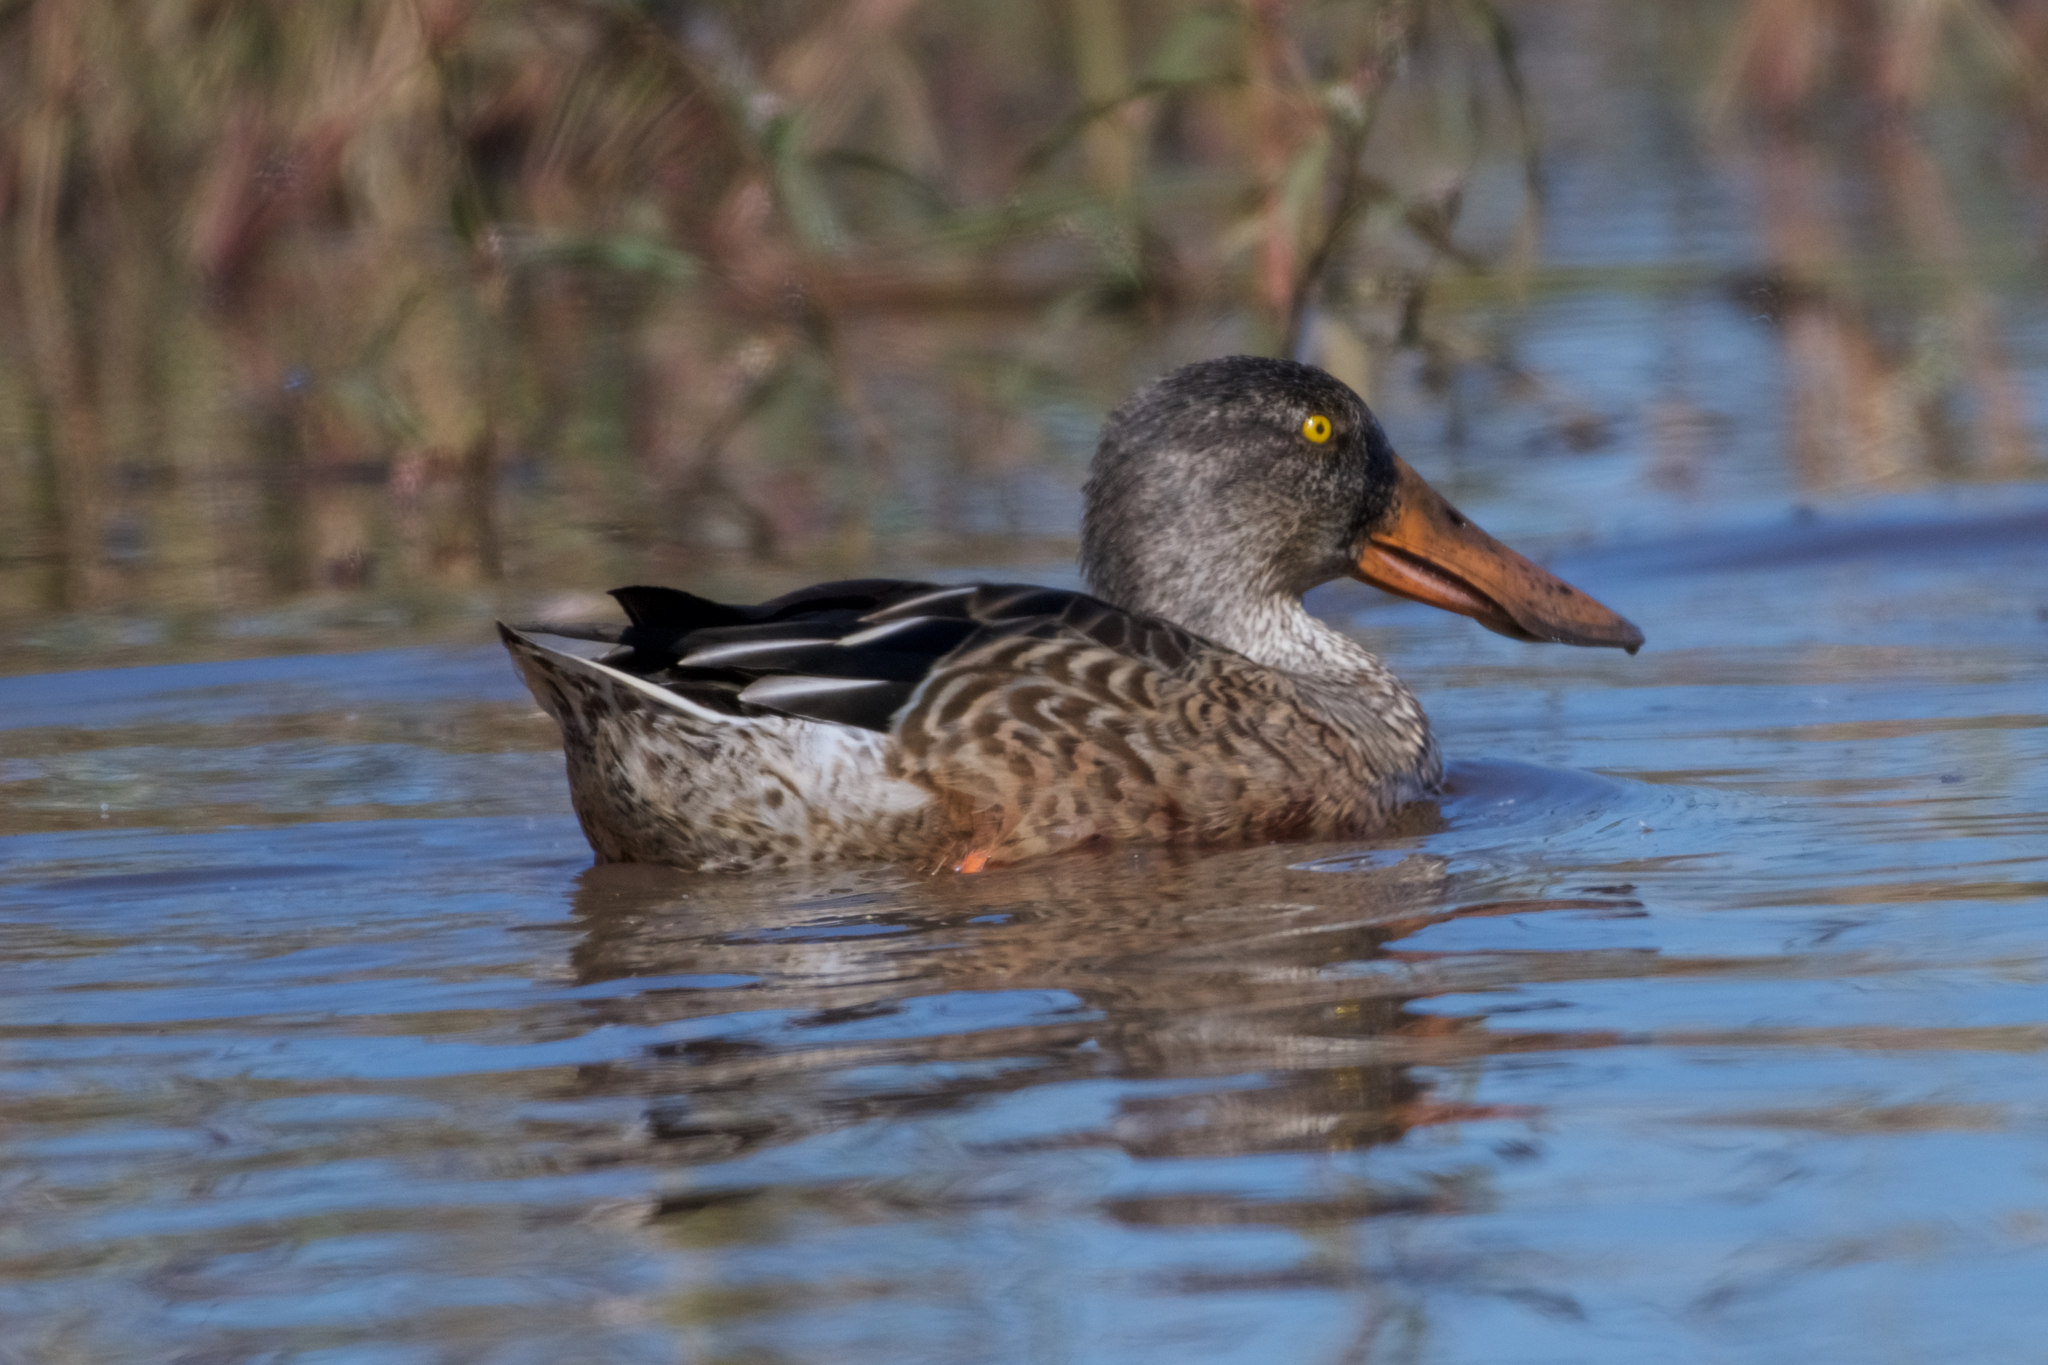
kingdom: Animalia
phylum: Chordata
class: Aves
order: Anseriformes
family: Anatidae
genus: Spatula
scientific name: Spatula clypeata
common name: Northern shoveler
